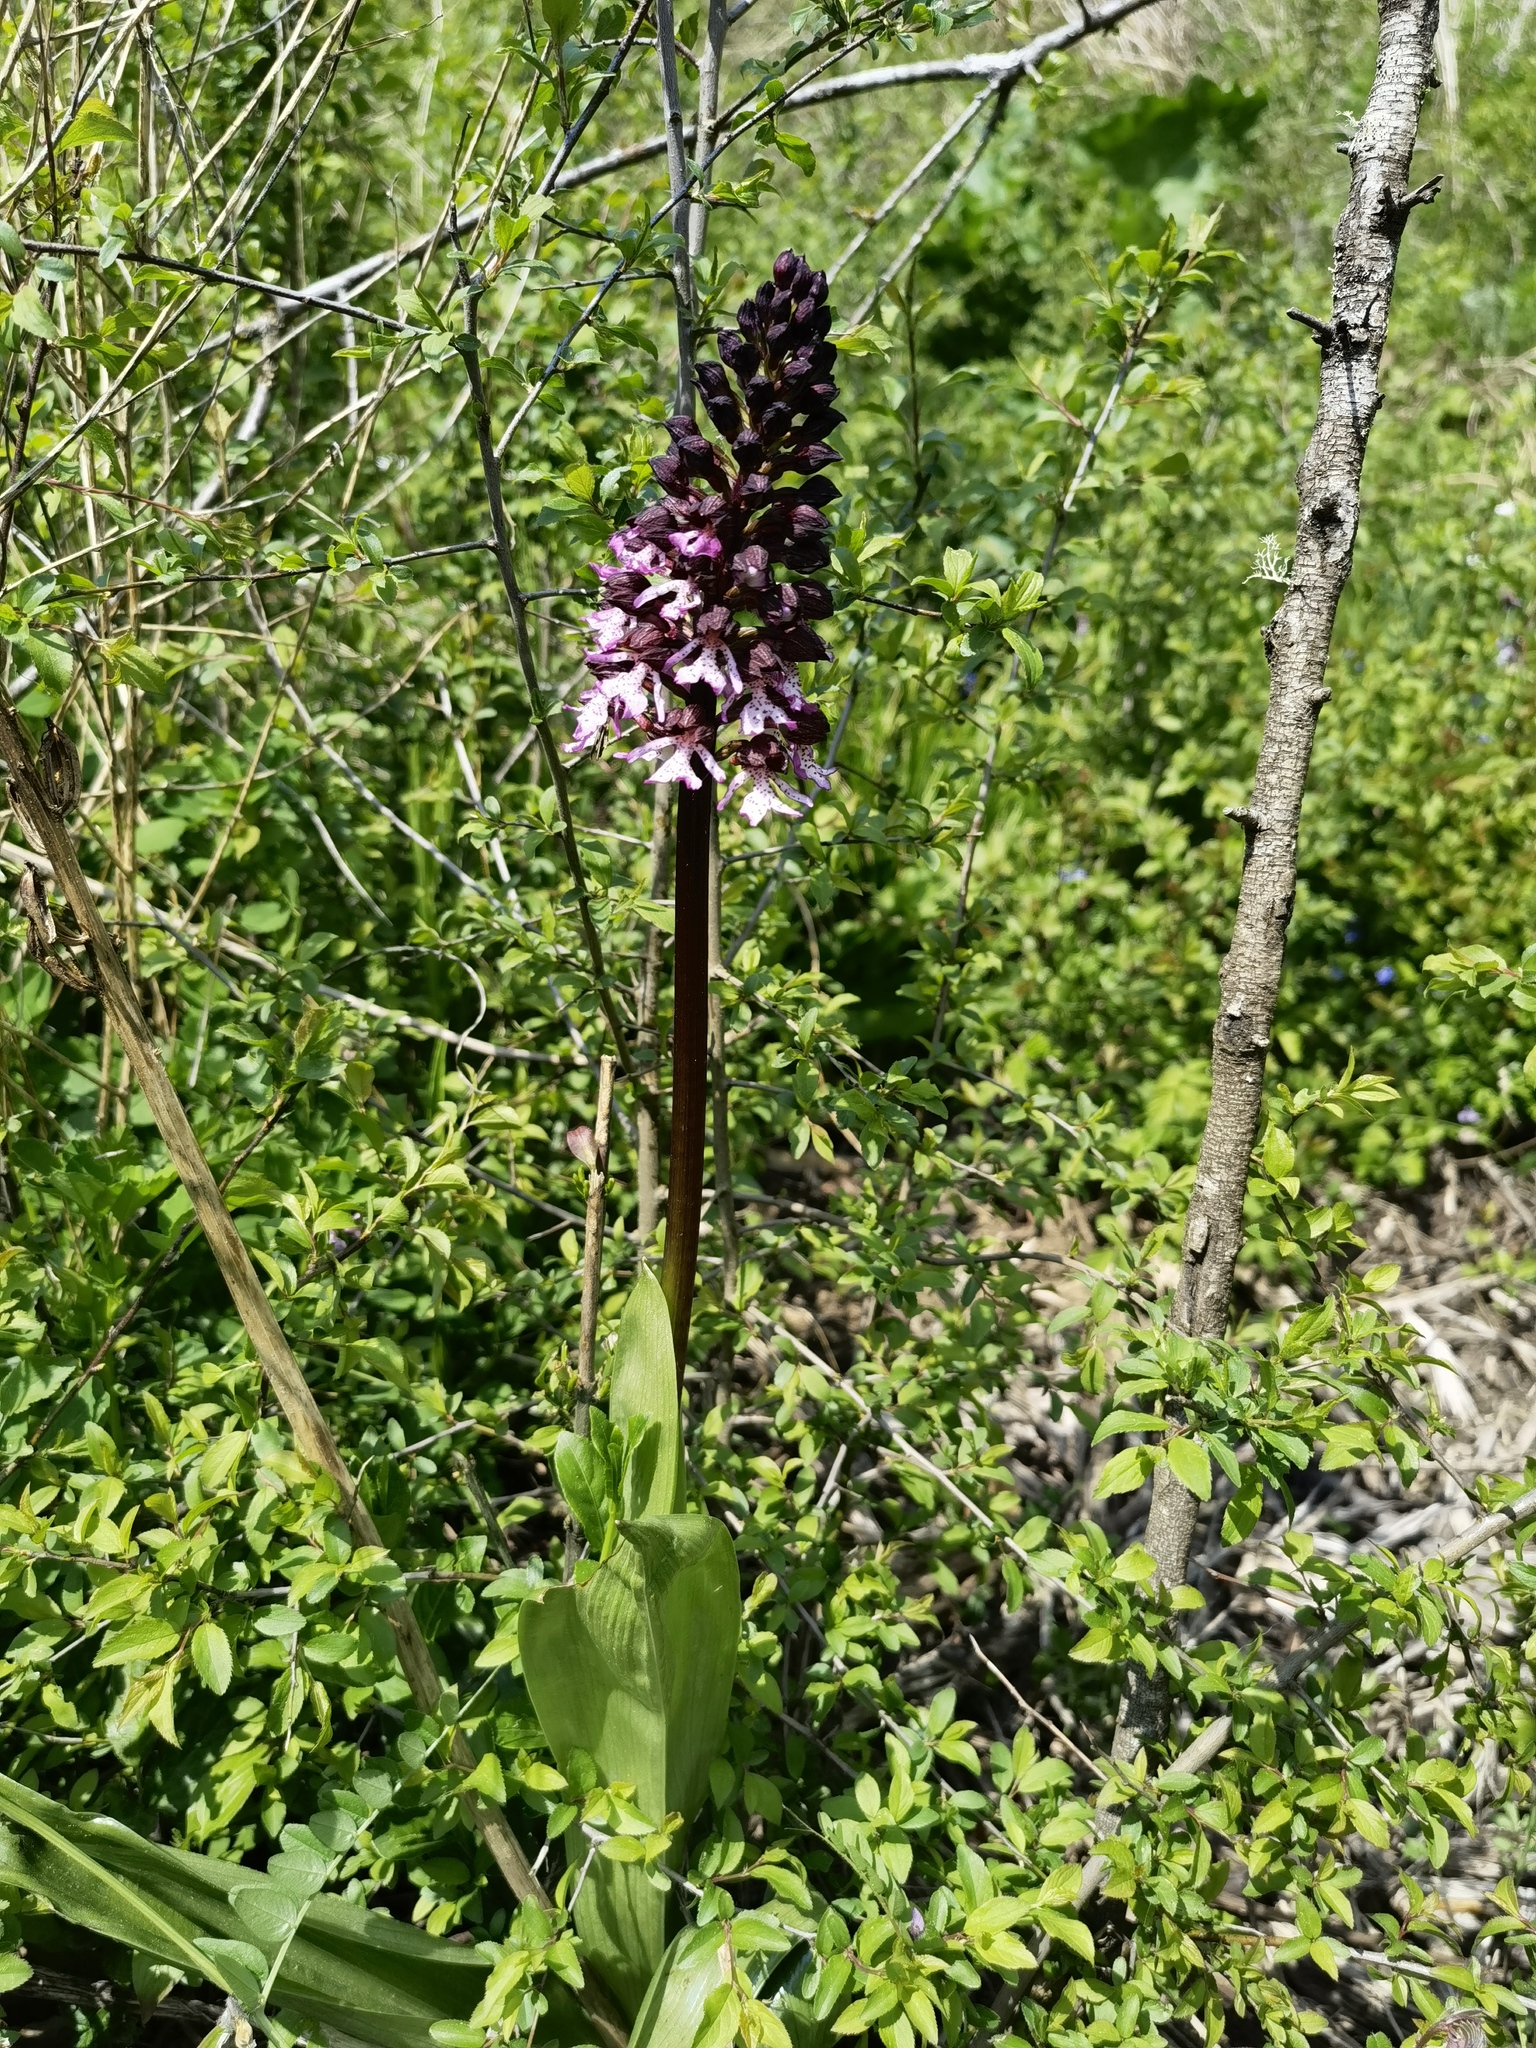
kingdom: Plantae
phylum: Tracheophyta
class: Liliopsida
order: Asparagales
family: Orchidaceae
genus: Orchis
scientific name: Orchis purpurea
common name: Lady orchid
